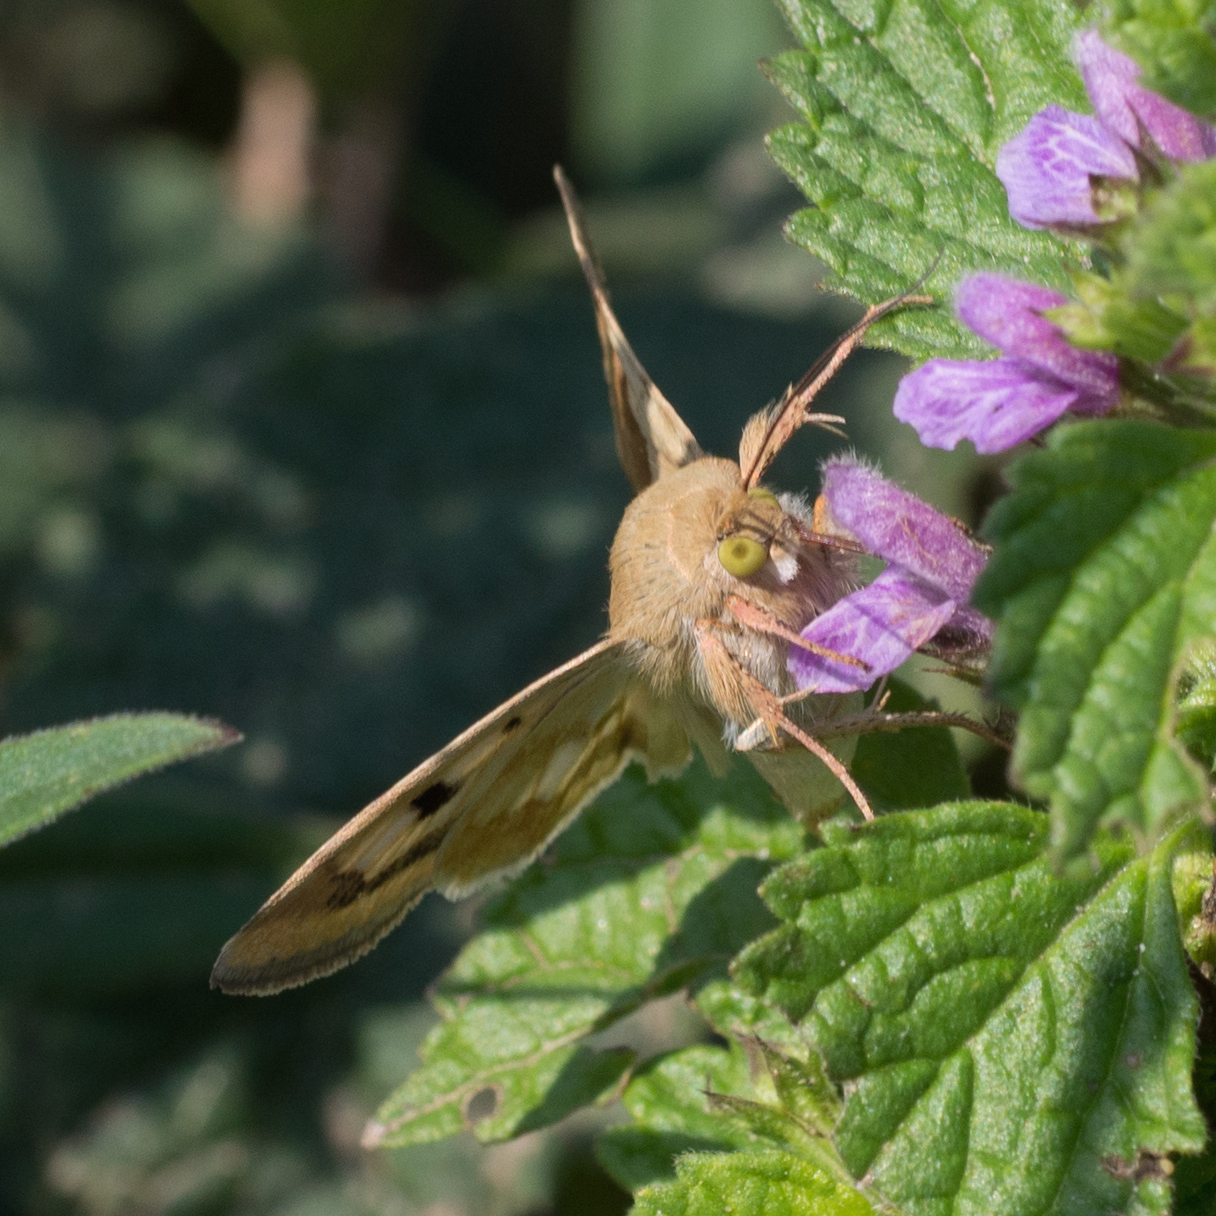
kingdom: Animalia
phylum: Arthropoda
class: Insecta
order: Lepidoptera
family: Noctuidae
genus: Heliothis
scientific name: Heliothis adaucta
